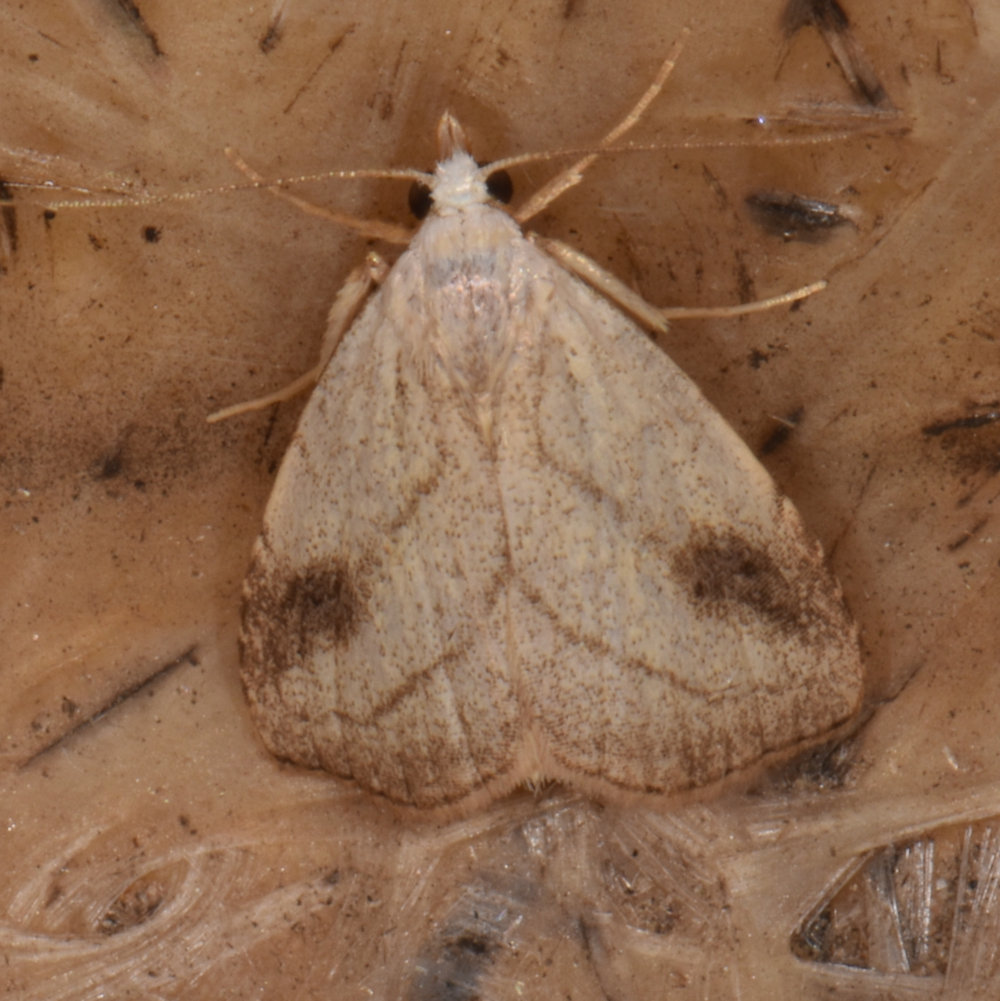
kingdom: Animalia
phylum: Arthropoda
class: Insecta
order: Lepidoptera
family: Erebidae
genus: Rivula
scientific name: Rivula propinqualis
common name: Spotted grass moth
